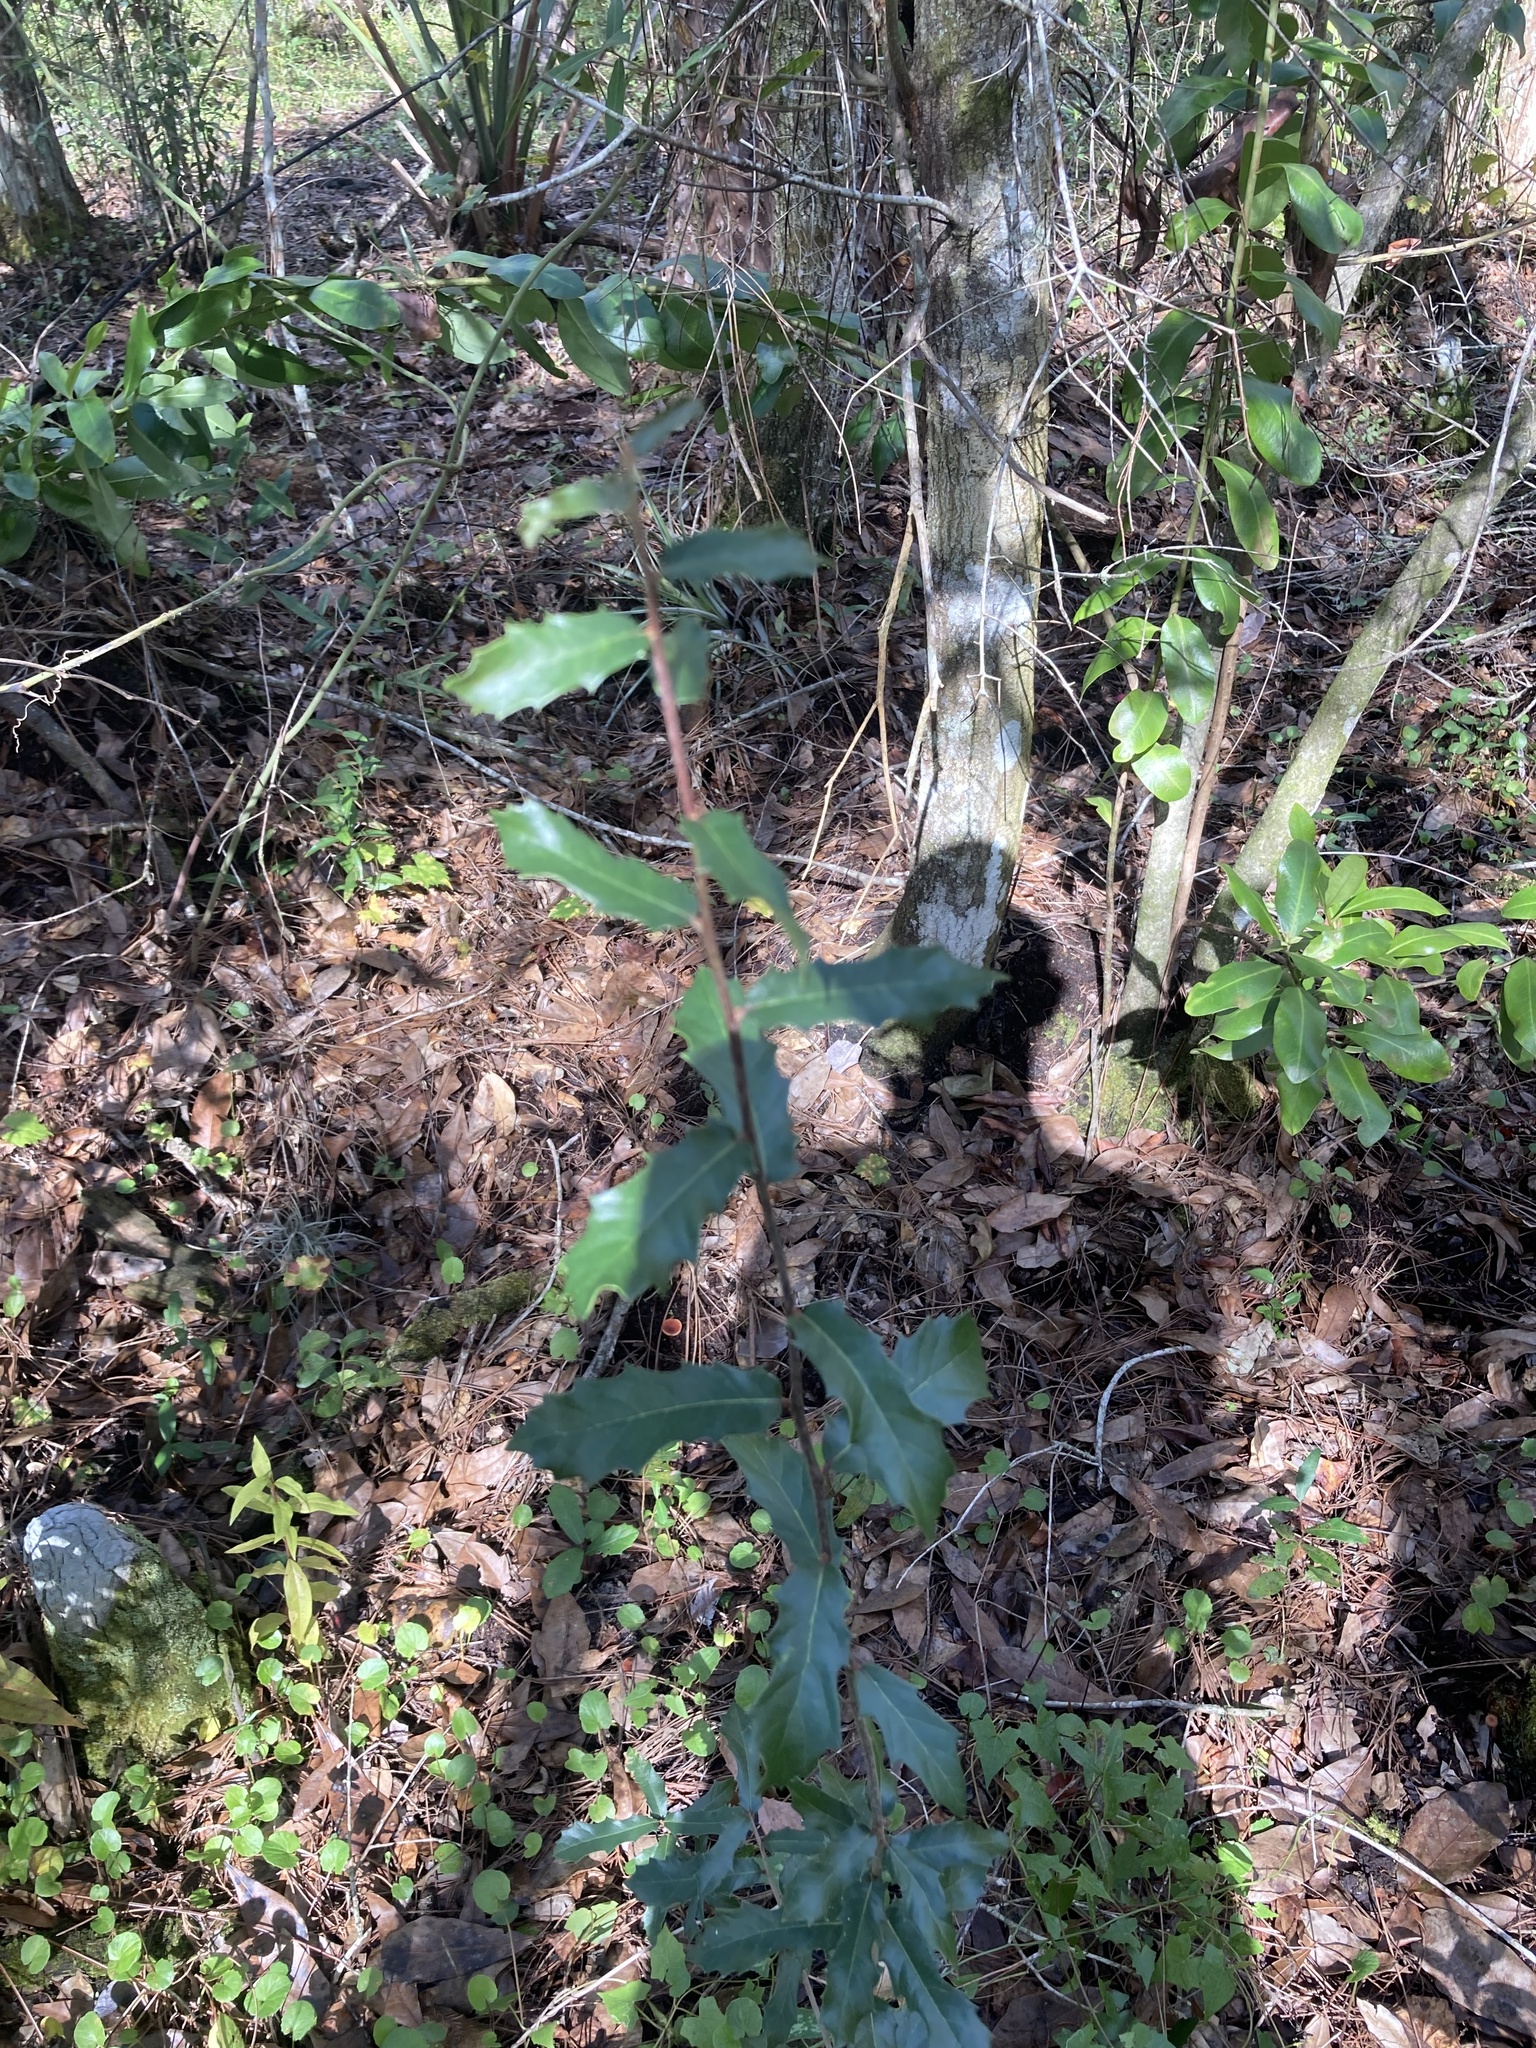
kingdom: Plantae
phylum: Tracheophyta
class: Magnoliopsida
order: Fagales
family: Fagaceae
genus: Quercus
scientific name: Quercus virginiana
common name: Southern live oak
